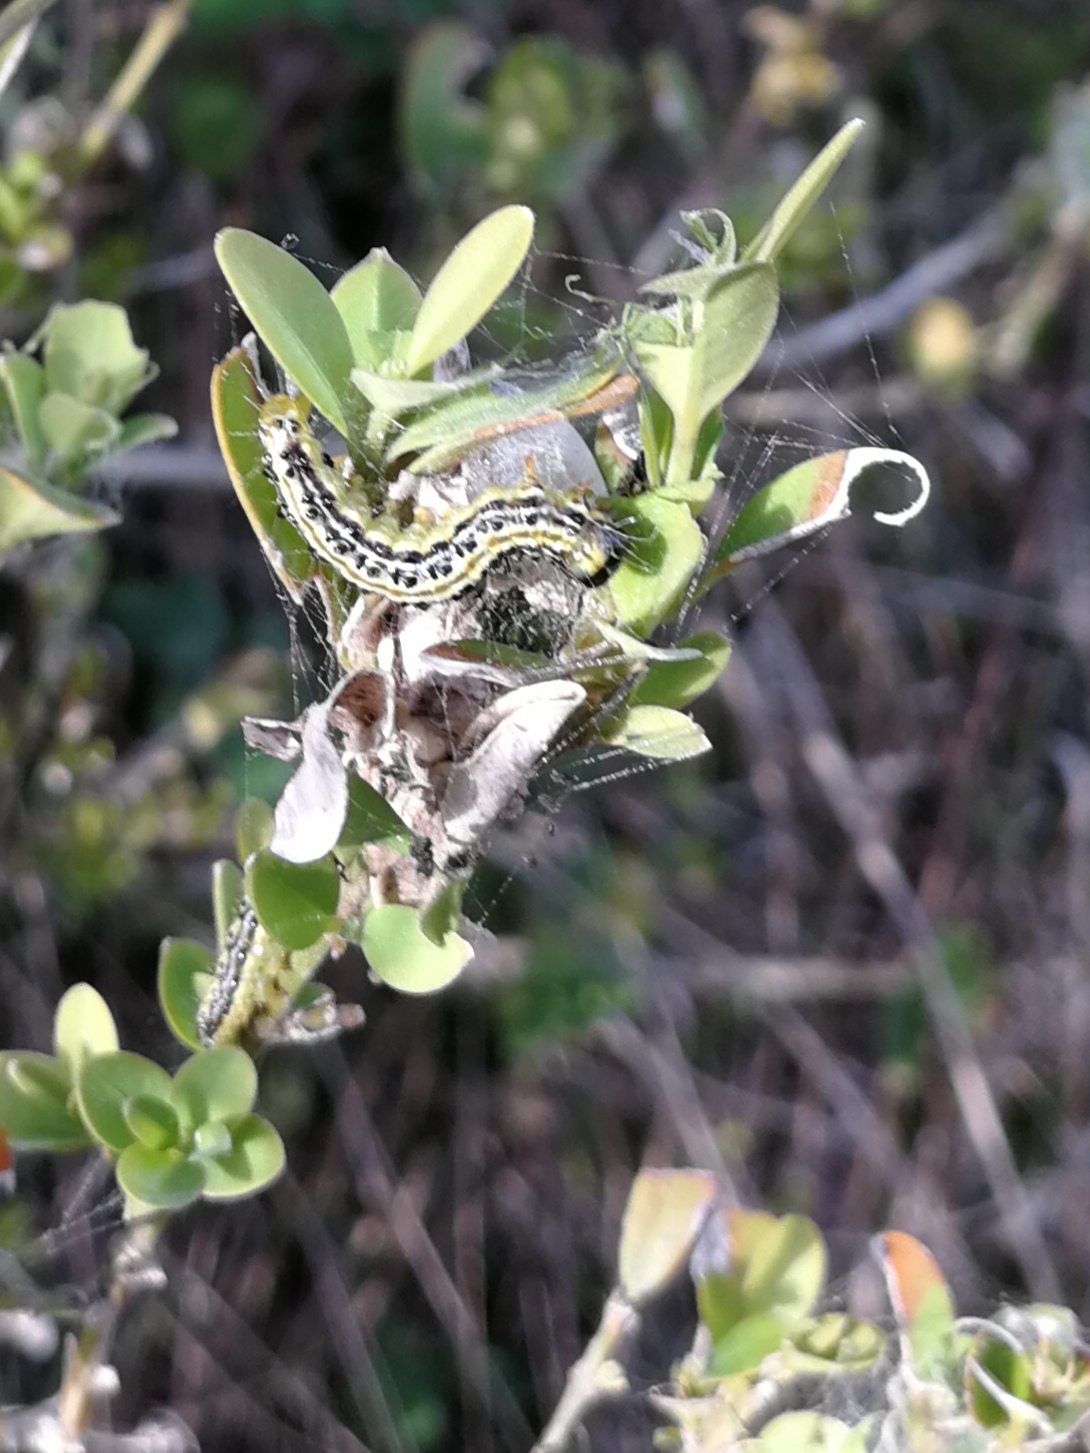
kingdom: Animalia
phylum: Arthropoda
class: Insecta
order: Lepidoptera
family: Crambidae
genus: Cydalima
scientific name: Cydalima perspectalis
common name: Box tree moth
